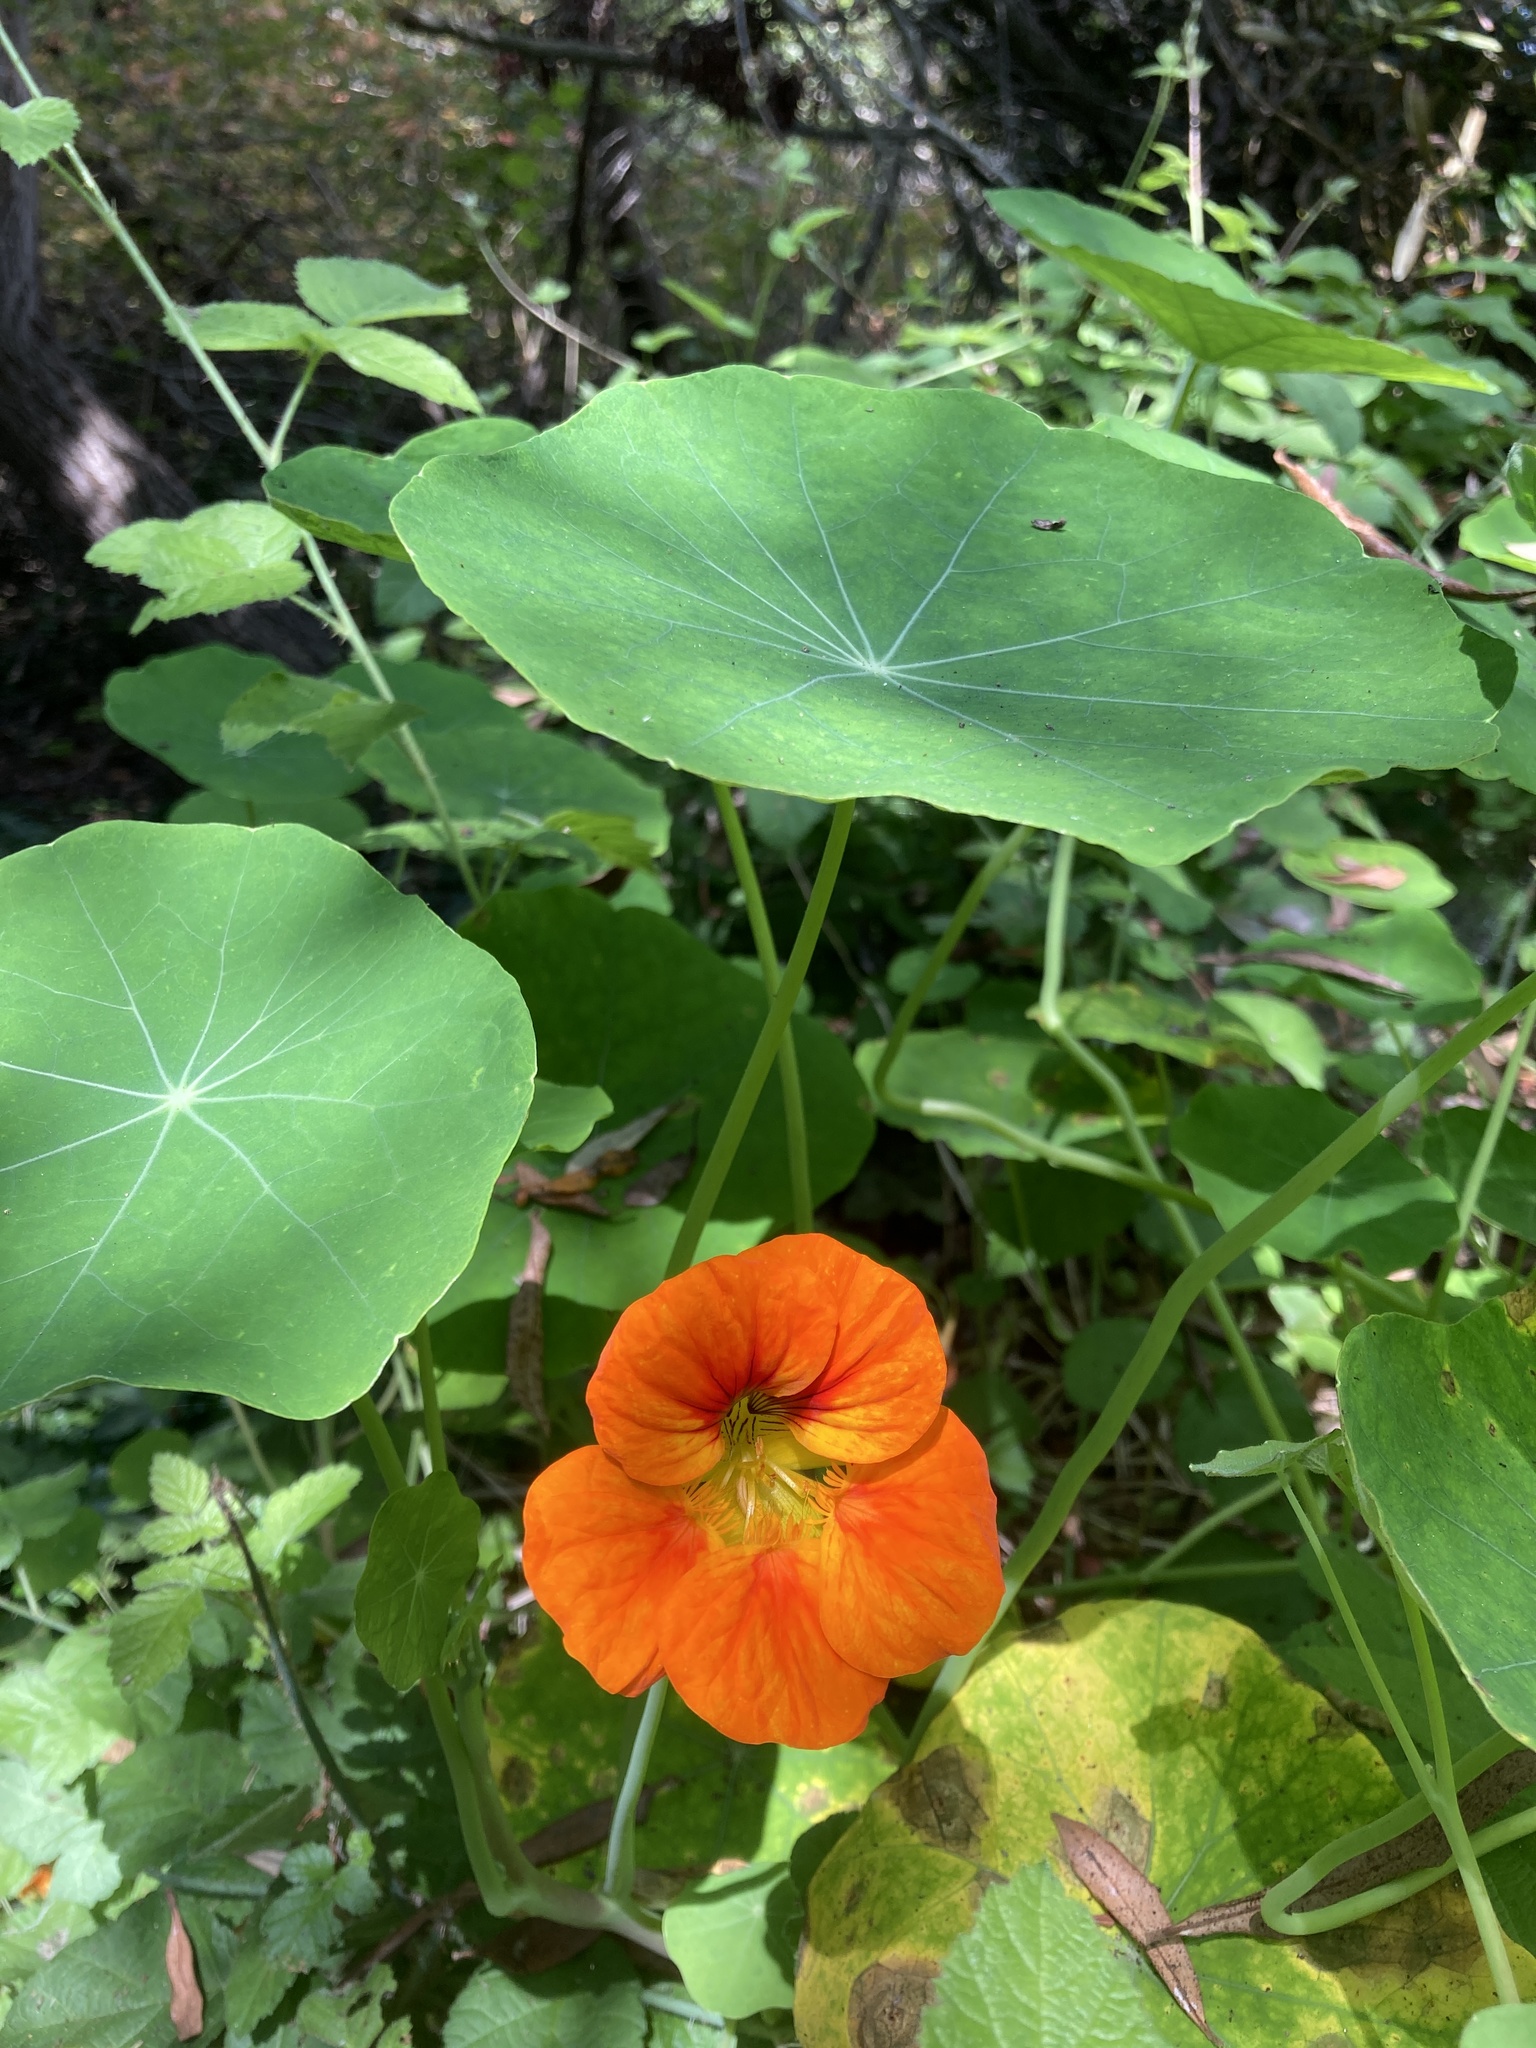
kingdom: Plantae
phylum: Tracheophyta
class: Magnoliopsida
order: Brassicales
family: Tropaeolaceae
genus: Tropaeolum
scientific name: Tropaeolum majus
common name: Nasturtium
